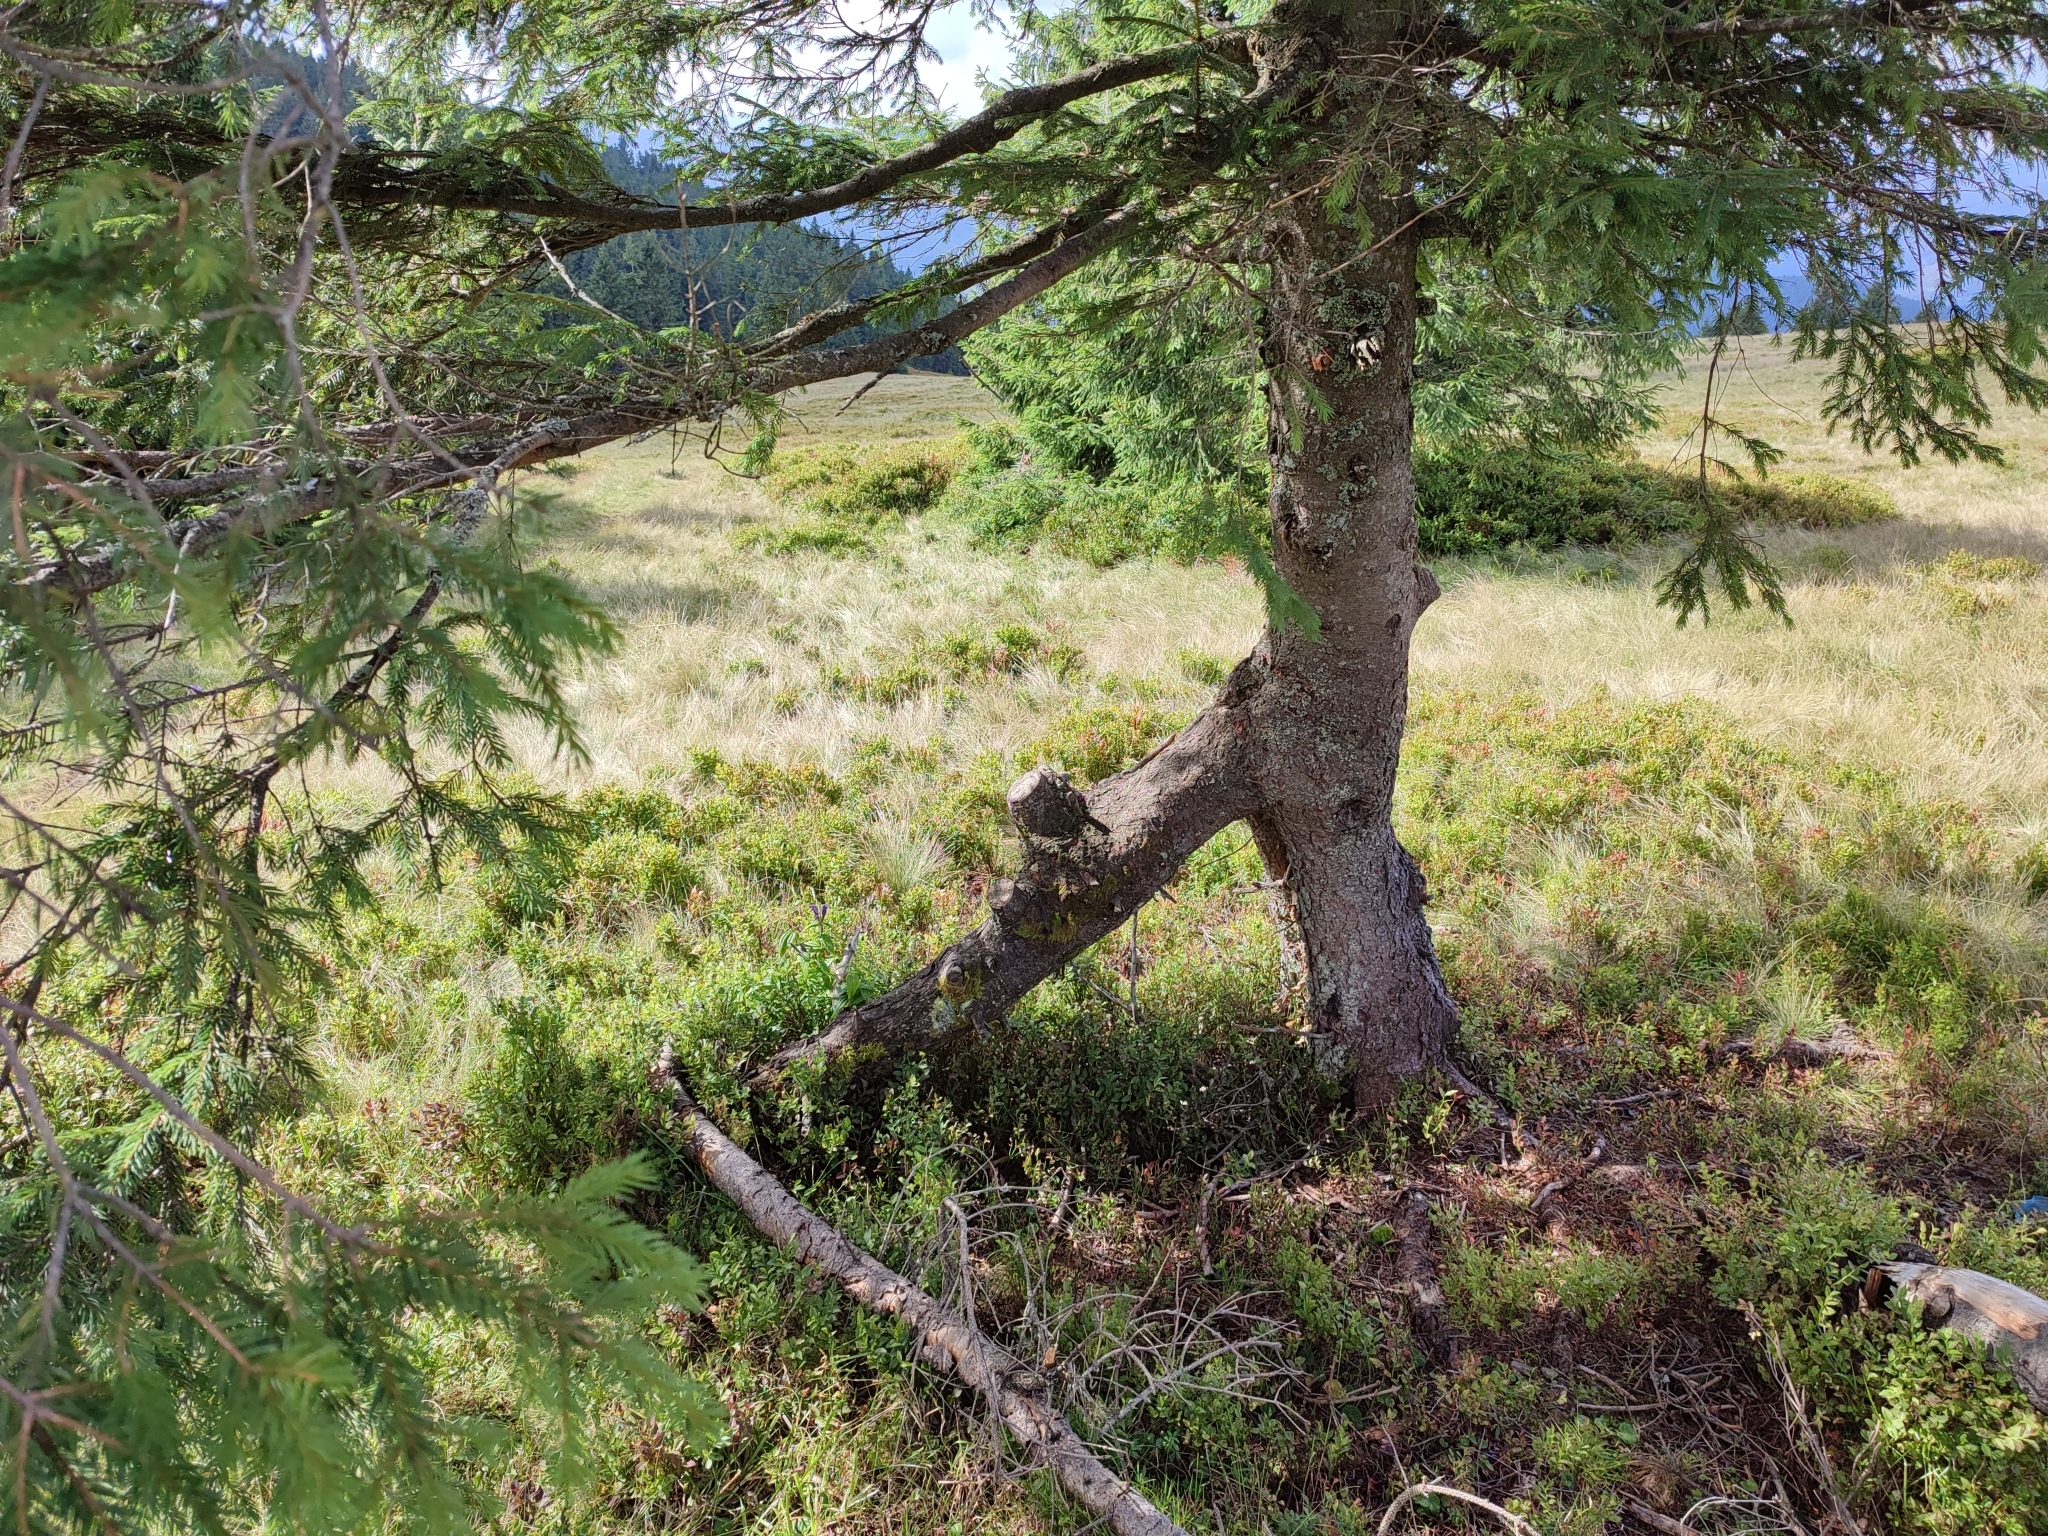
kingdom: Plantae
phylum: Tracheophyta
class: Pinopsida
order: Pinales
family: Pinaceae
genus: Picea
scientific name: Picea abies
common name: Norway spruce
